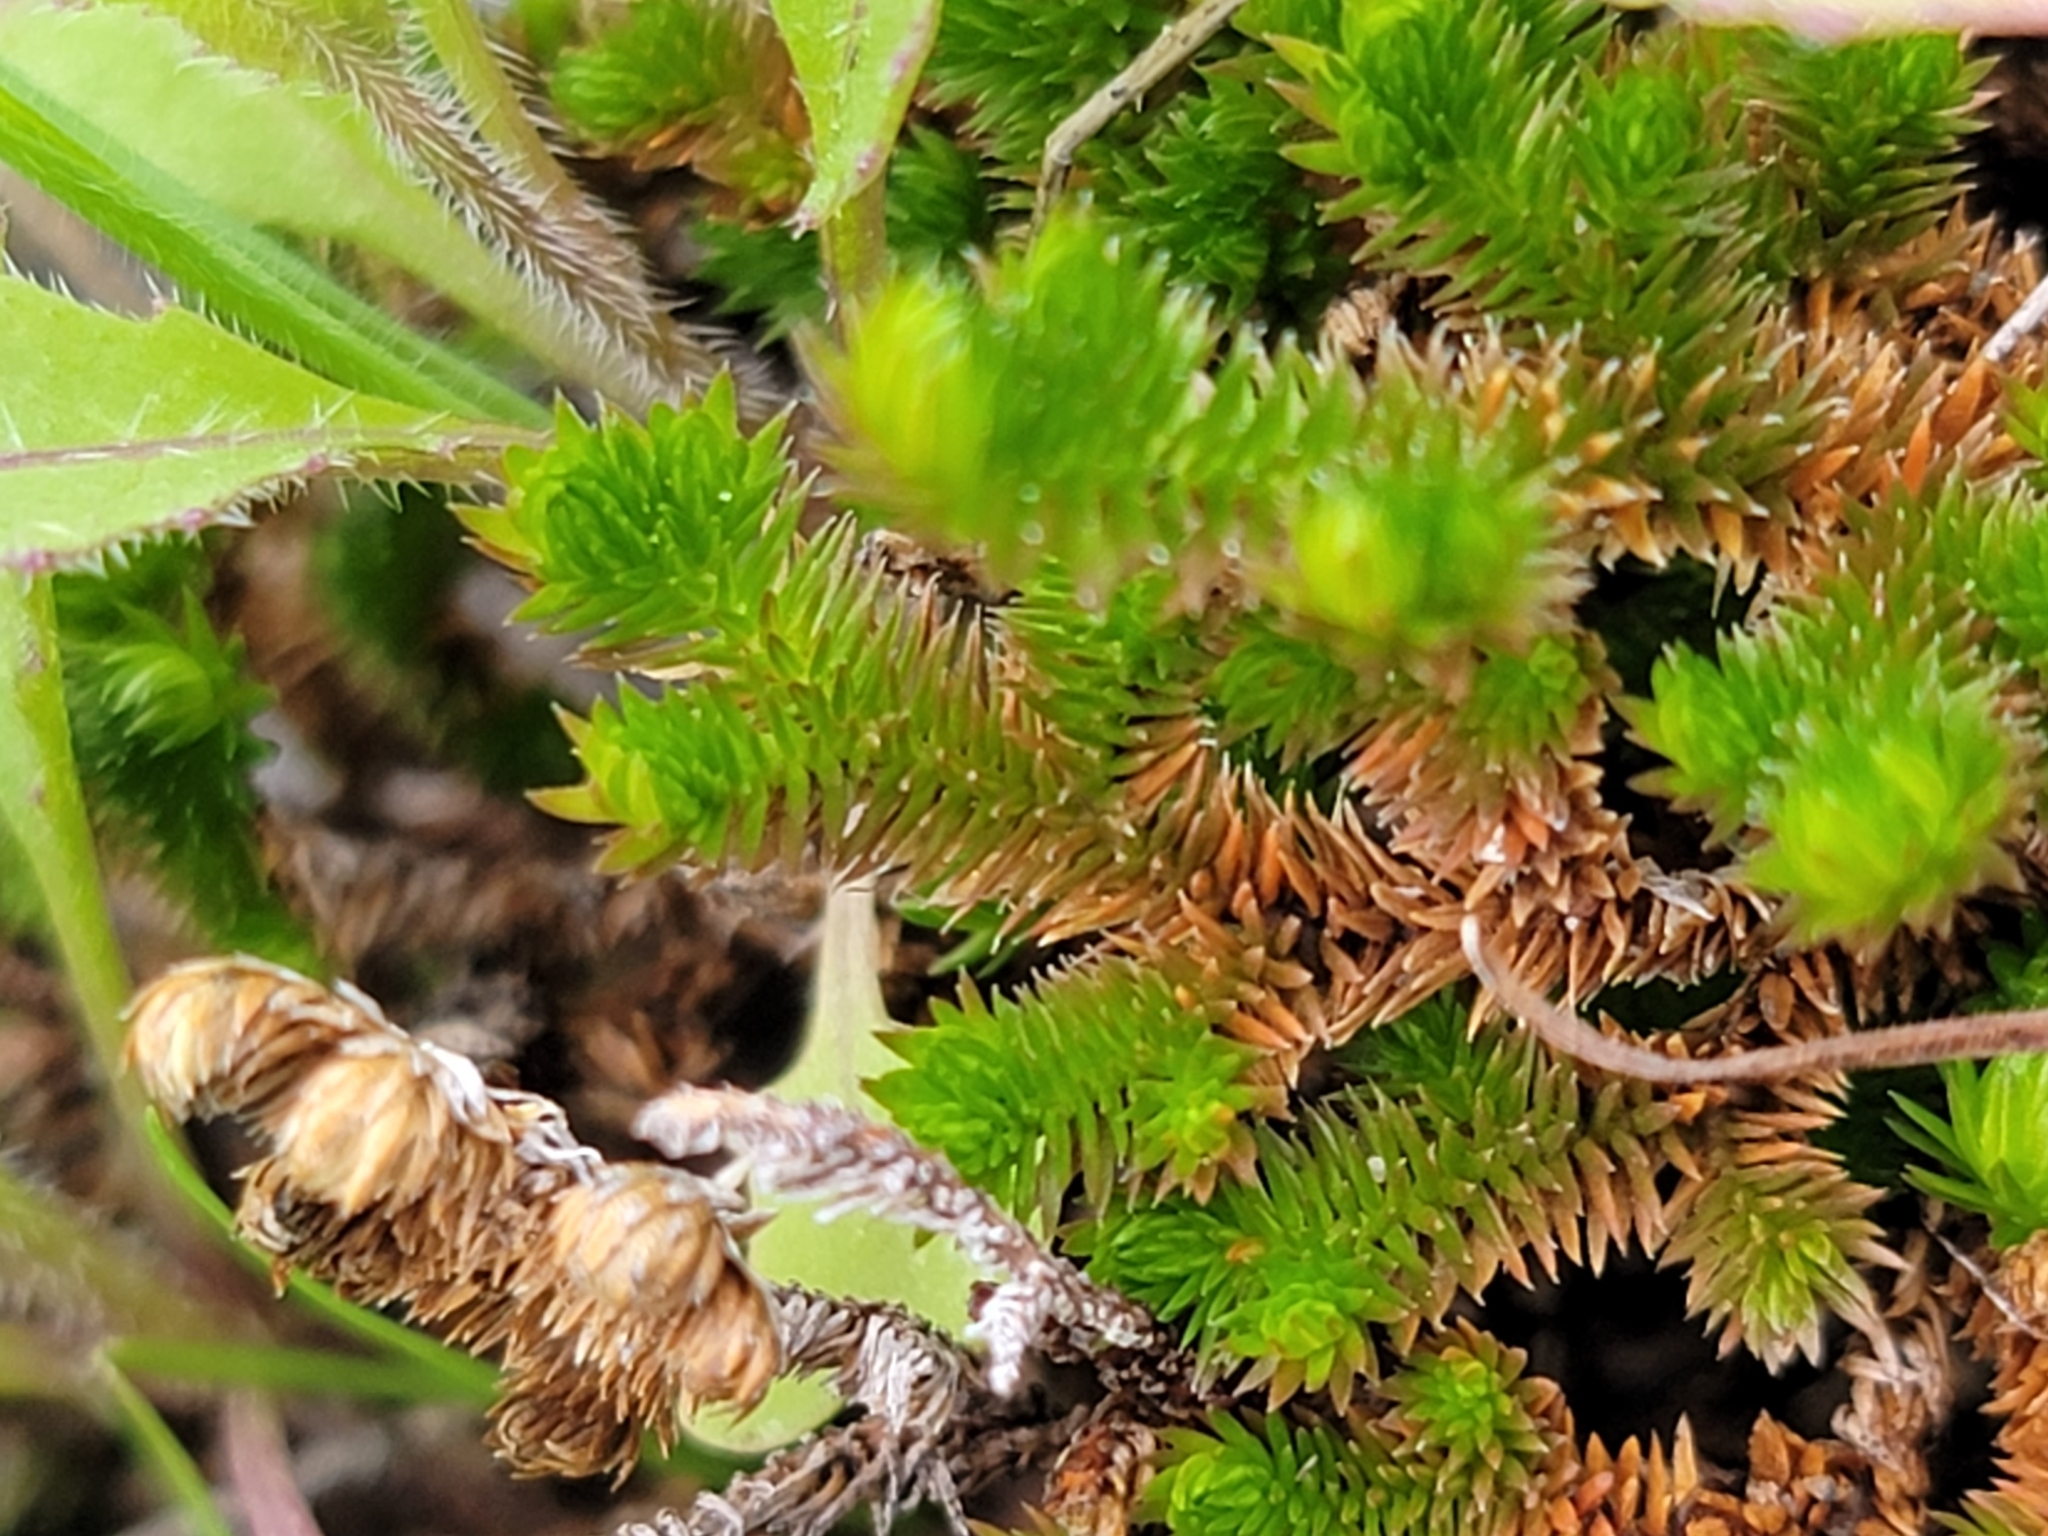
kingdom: Plantae
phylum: Tracheophyta
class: Lycopodiopsida
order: Selaginellales
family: Selaginellaceae
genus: Selaginella
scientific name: Selaginella arizonica
